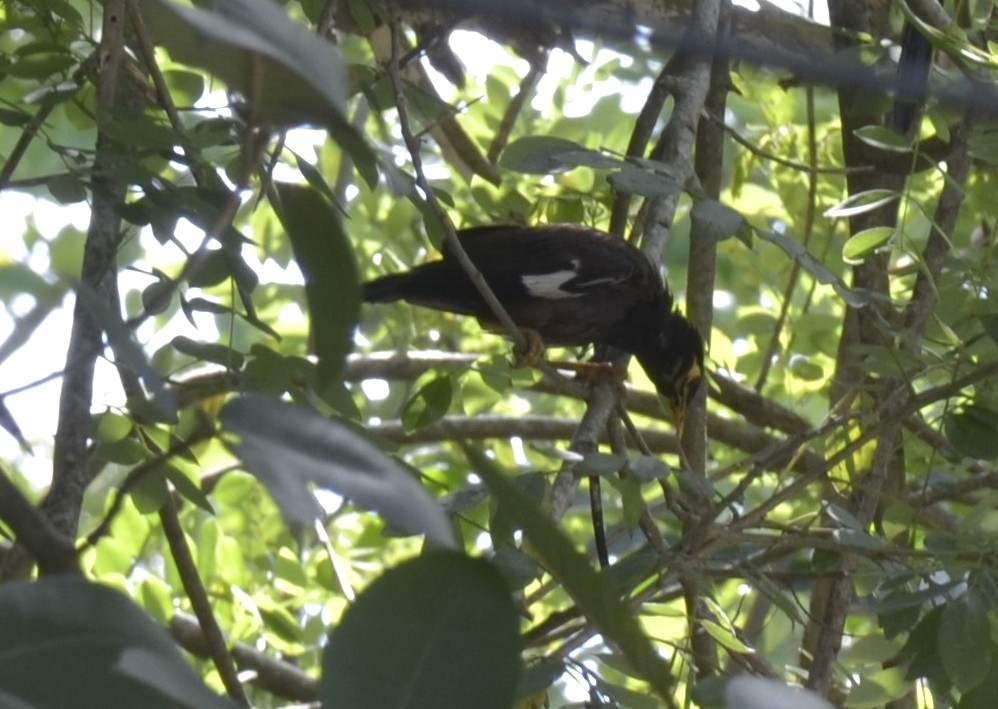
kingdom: Animalia
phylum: Chordata
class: Aves
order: Passeriformes
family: Sturnidae
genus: Acridotheres
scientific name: Acridotheres tristis
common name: Common myna
